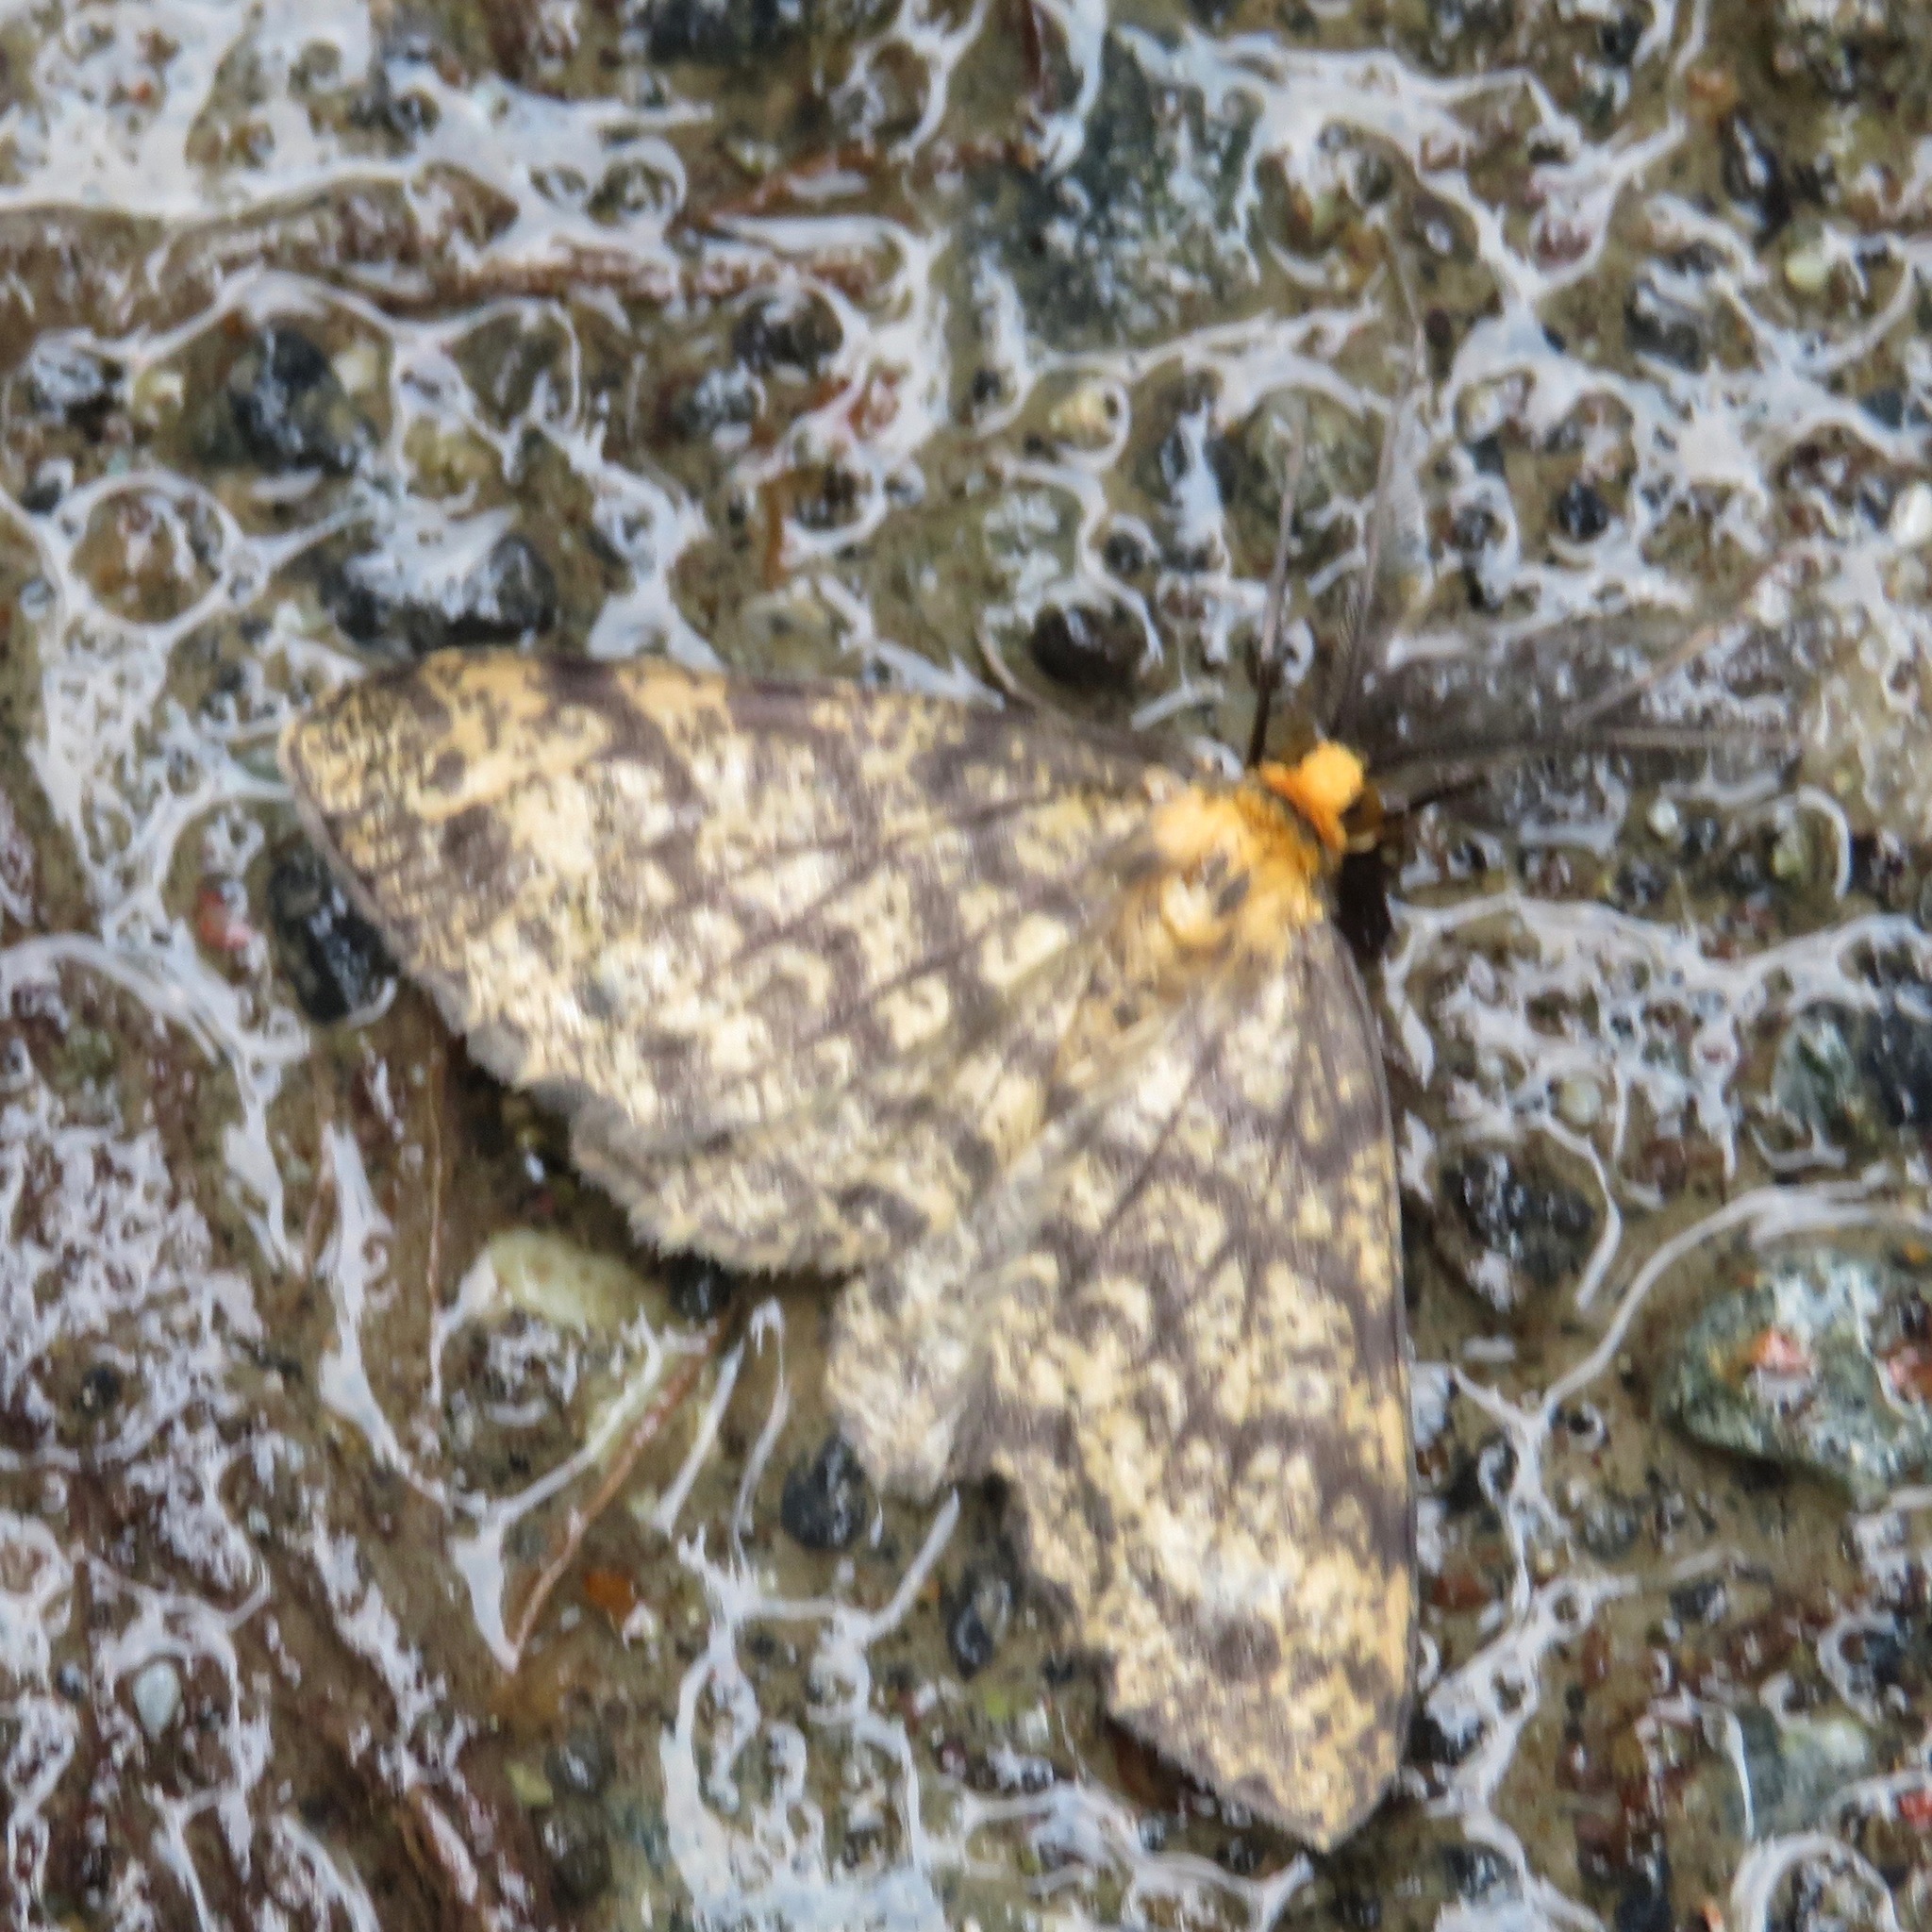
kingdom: Animalia
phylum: Arthropoda
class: Insecta
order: Lepidoptera
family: Geometridae
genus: Melanolophia
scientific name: Melanolophia parma
